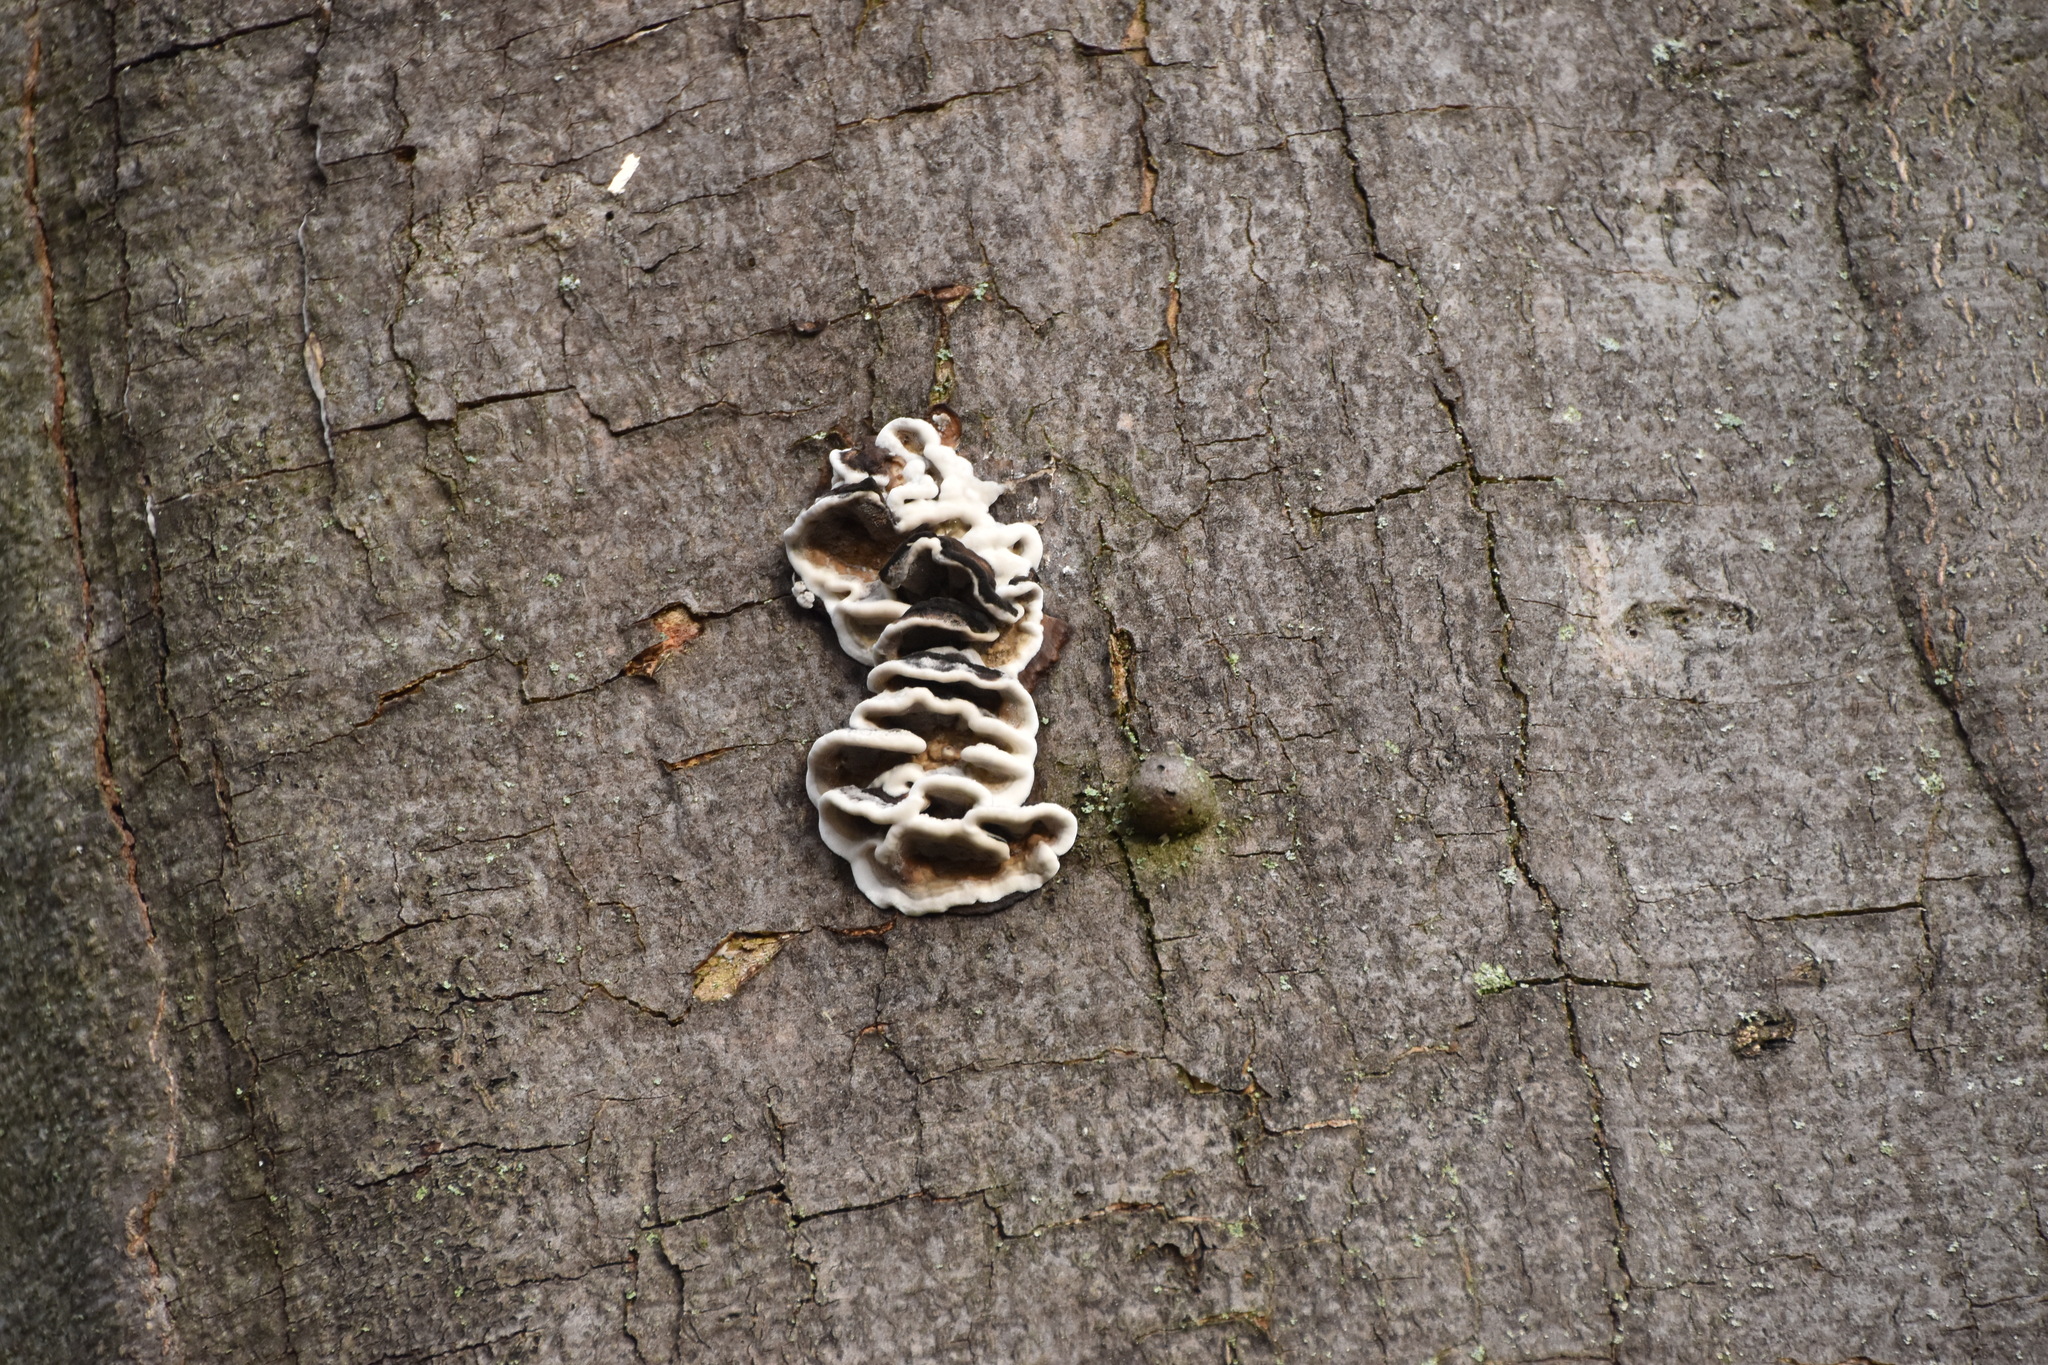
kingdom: Fungi
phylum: Basidiomycota
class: Agaricomycetes
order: Polyporales
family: Phanerochaetaceae
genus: Bjerkandera
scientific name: Bjerkandera adusta
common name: Smoky bracket
